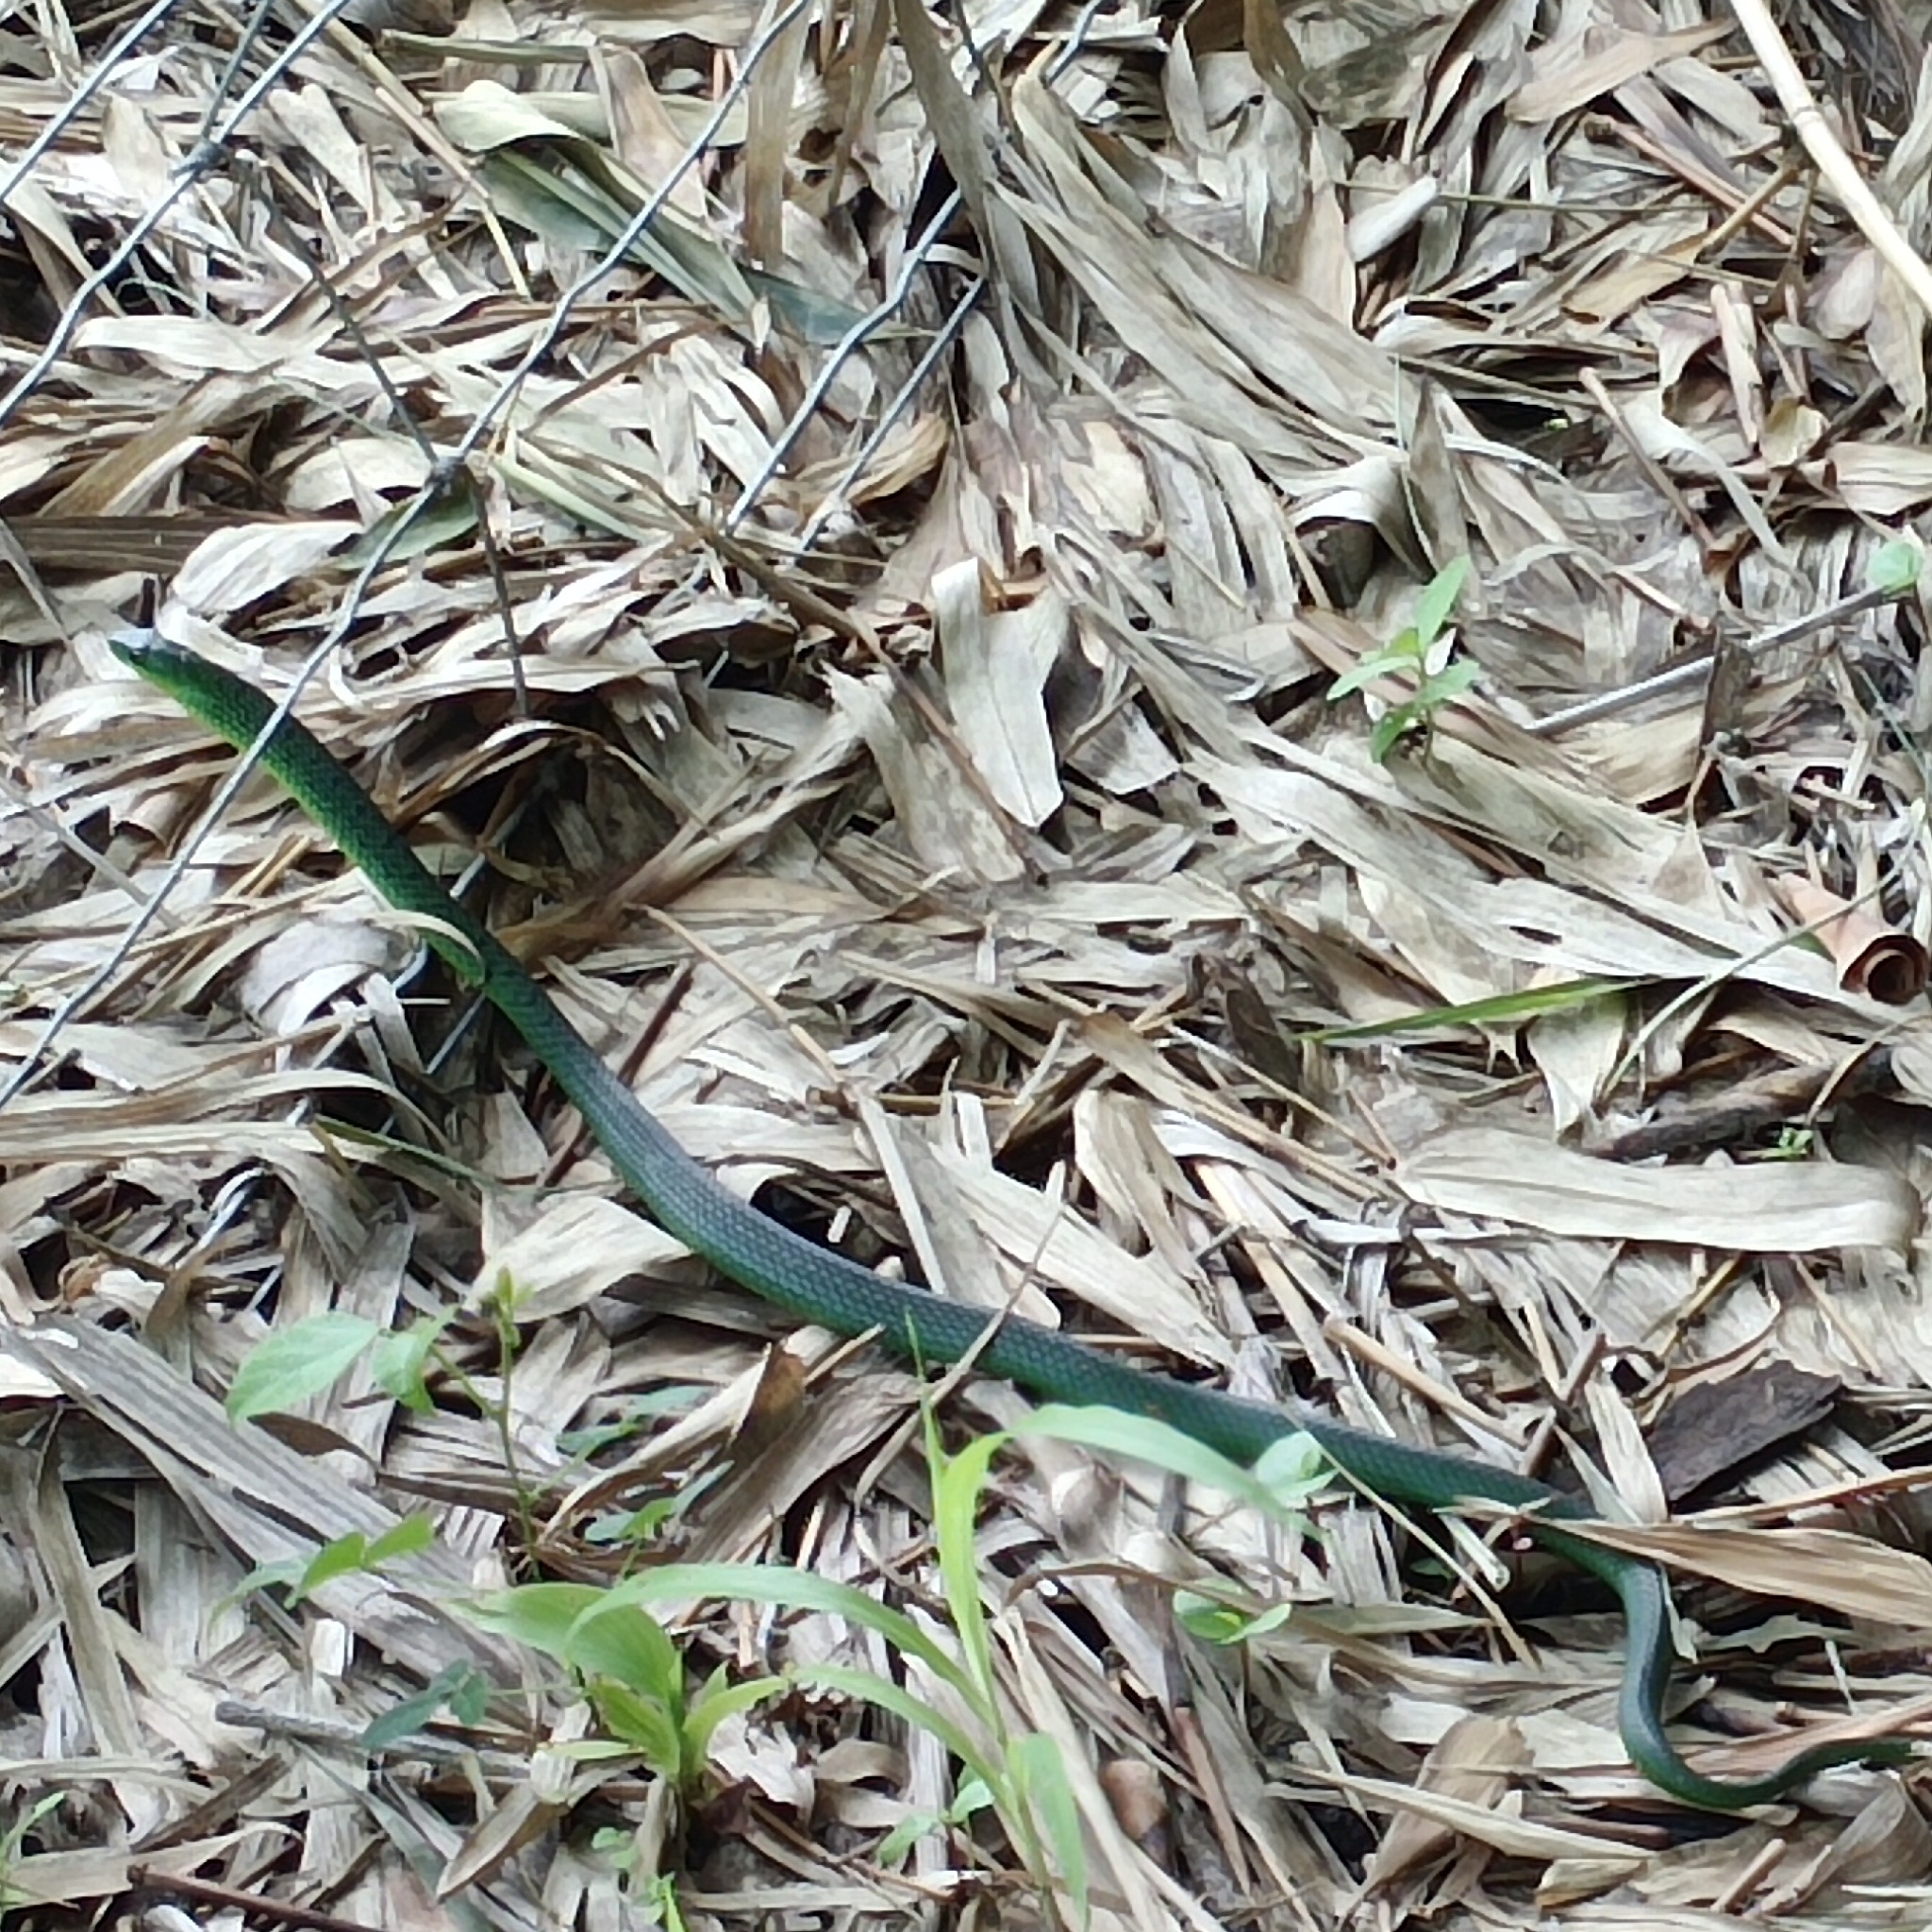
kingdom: Animalia
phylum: Chordata
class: Squamata
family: Colubridae
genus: Philothamnus
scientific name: Philothamnus natalensis
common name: Eastern natal green snake
